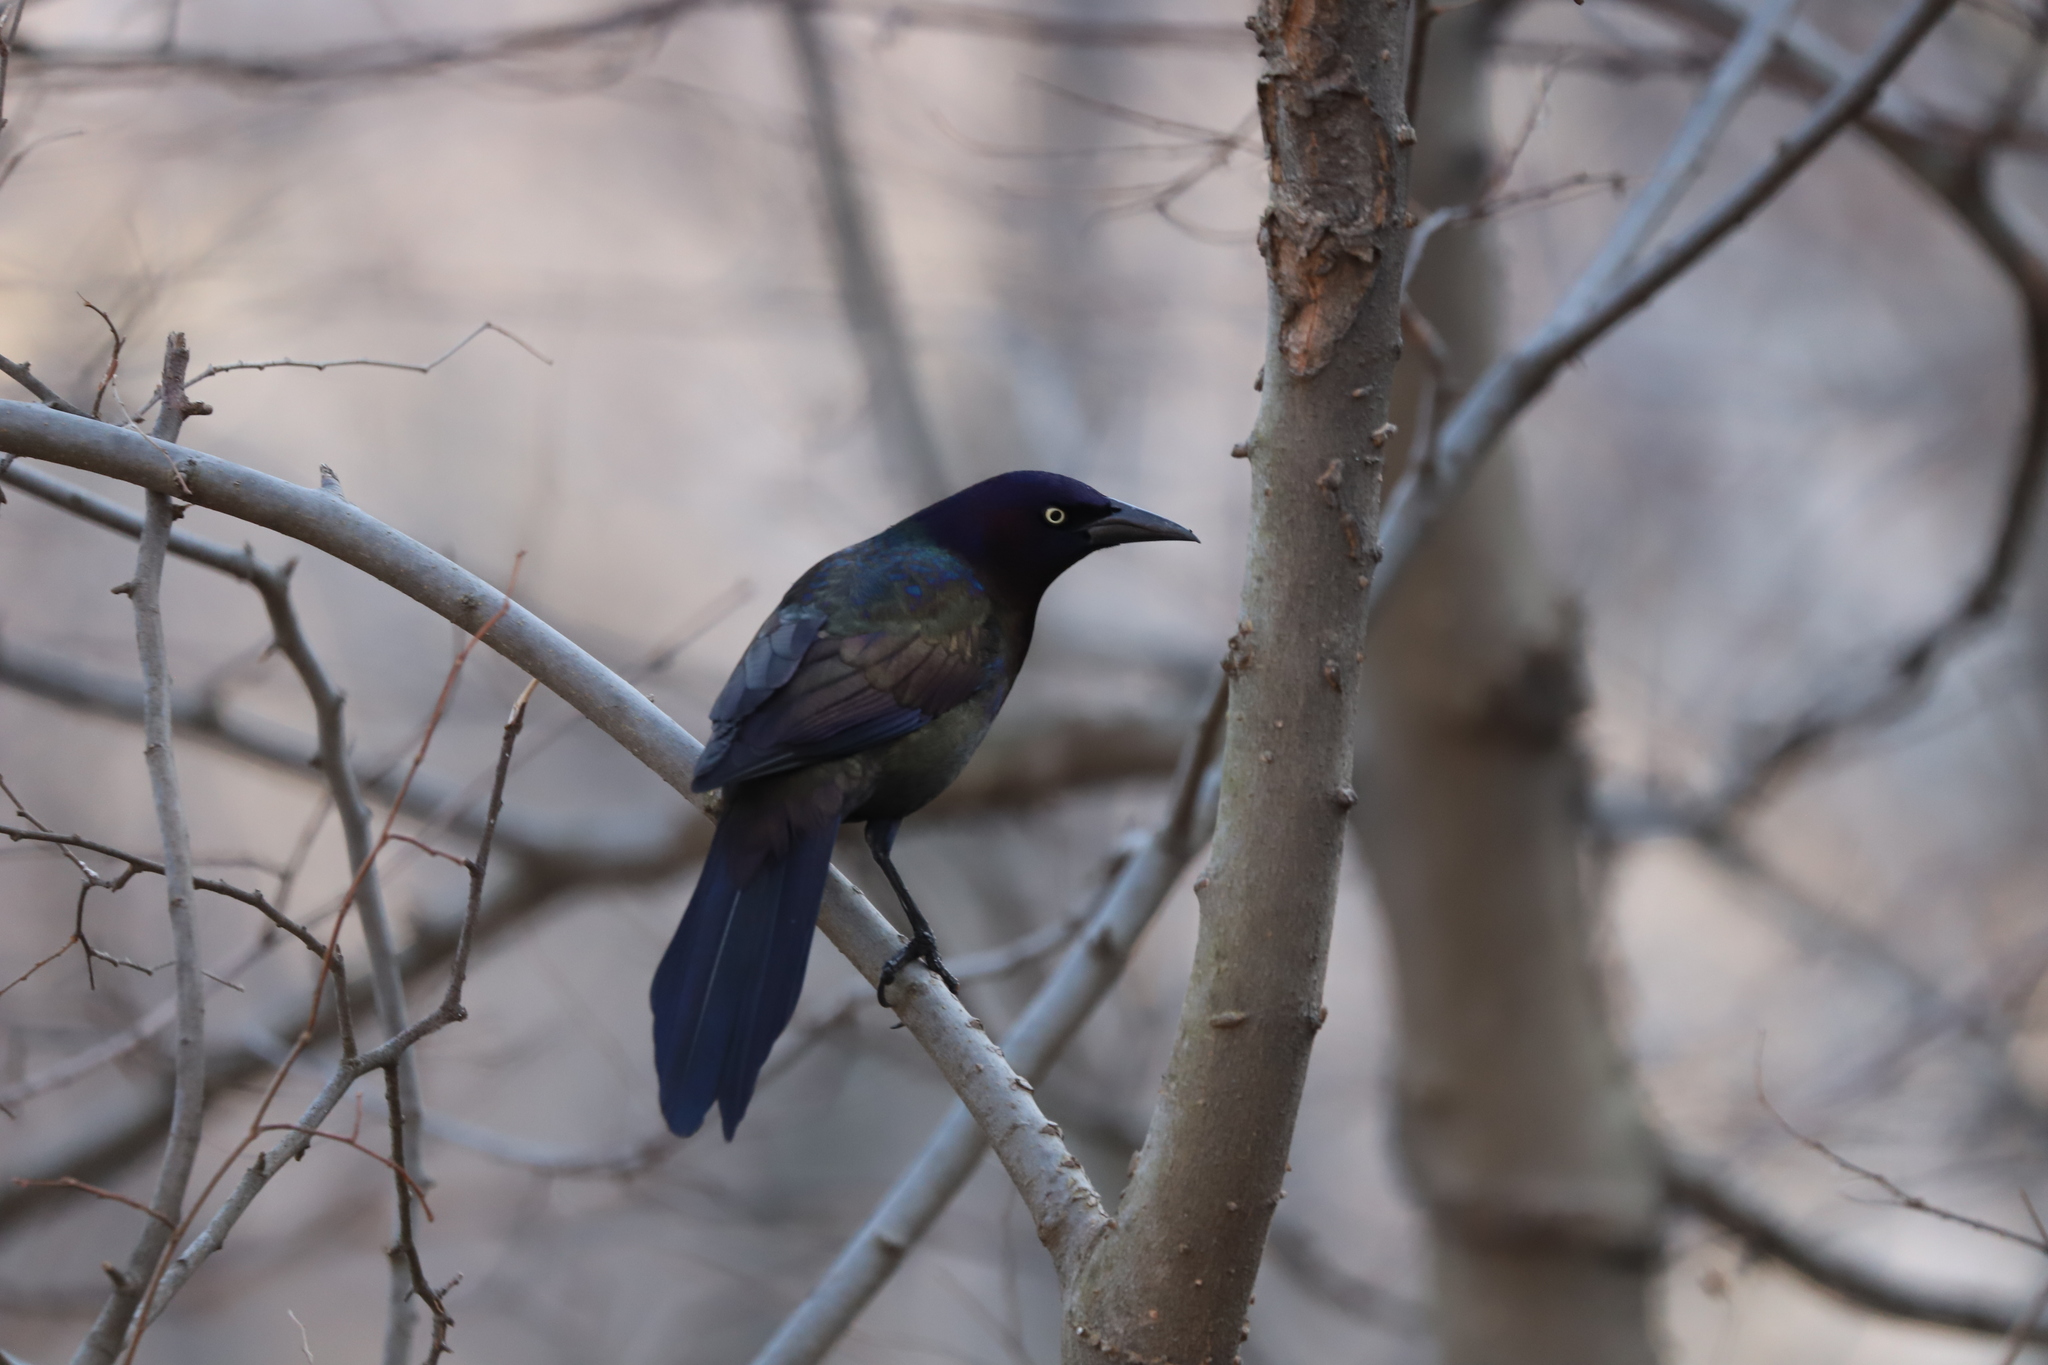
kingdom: Animalia
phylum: Chordata
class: Aves
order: Passeriformes
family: Icteridae
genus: Quiscalus
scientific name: Quiscalus quiscula
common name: Common grackle
